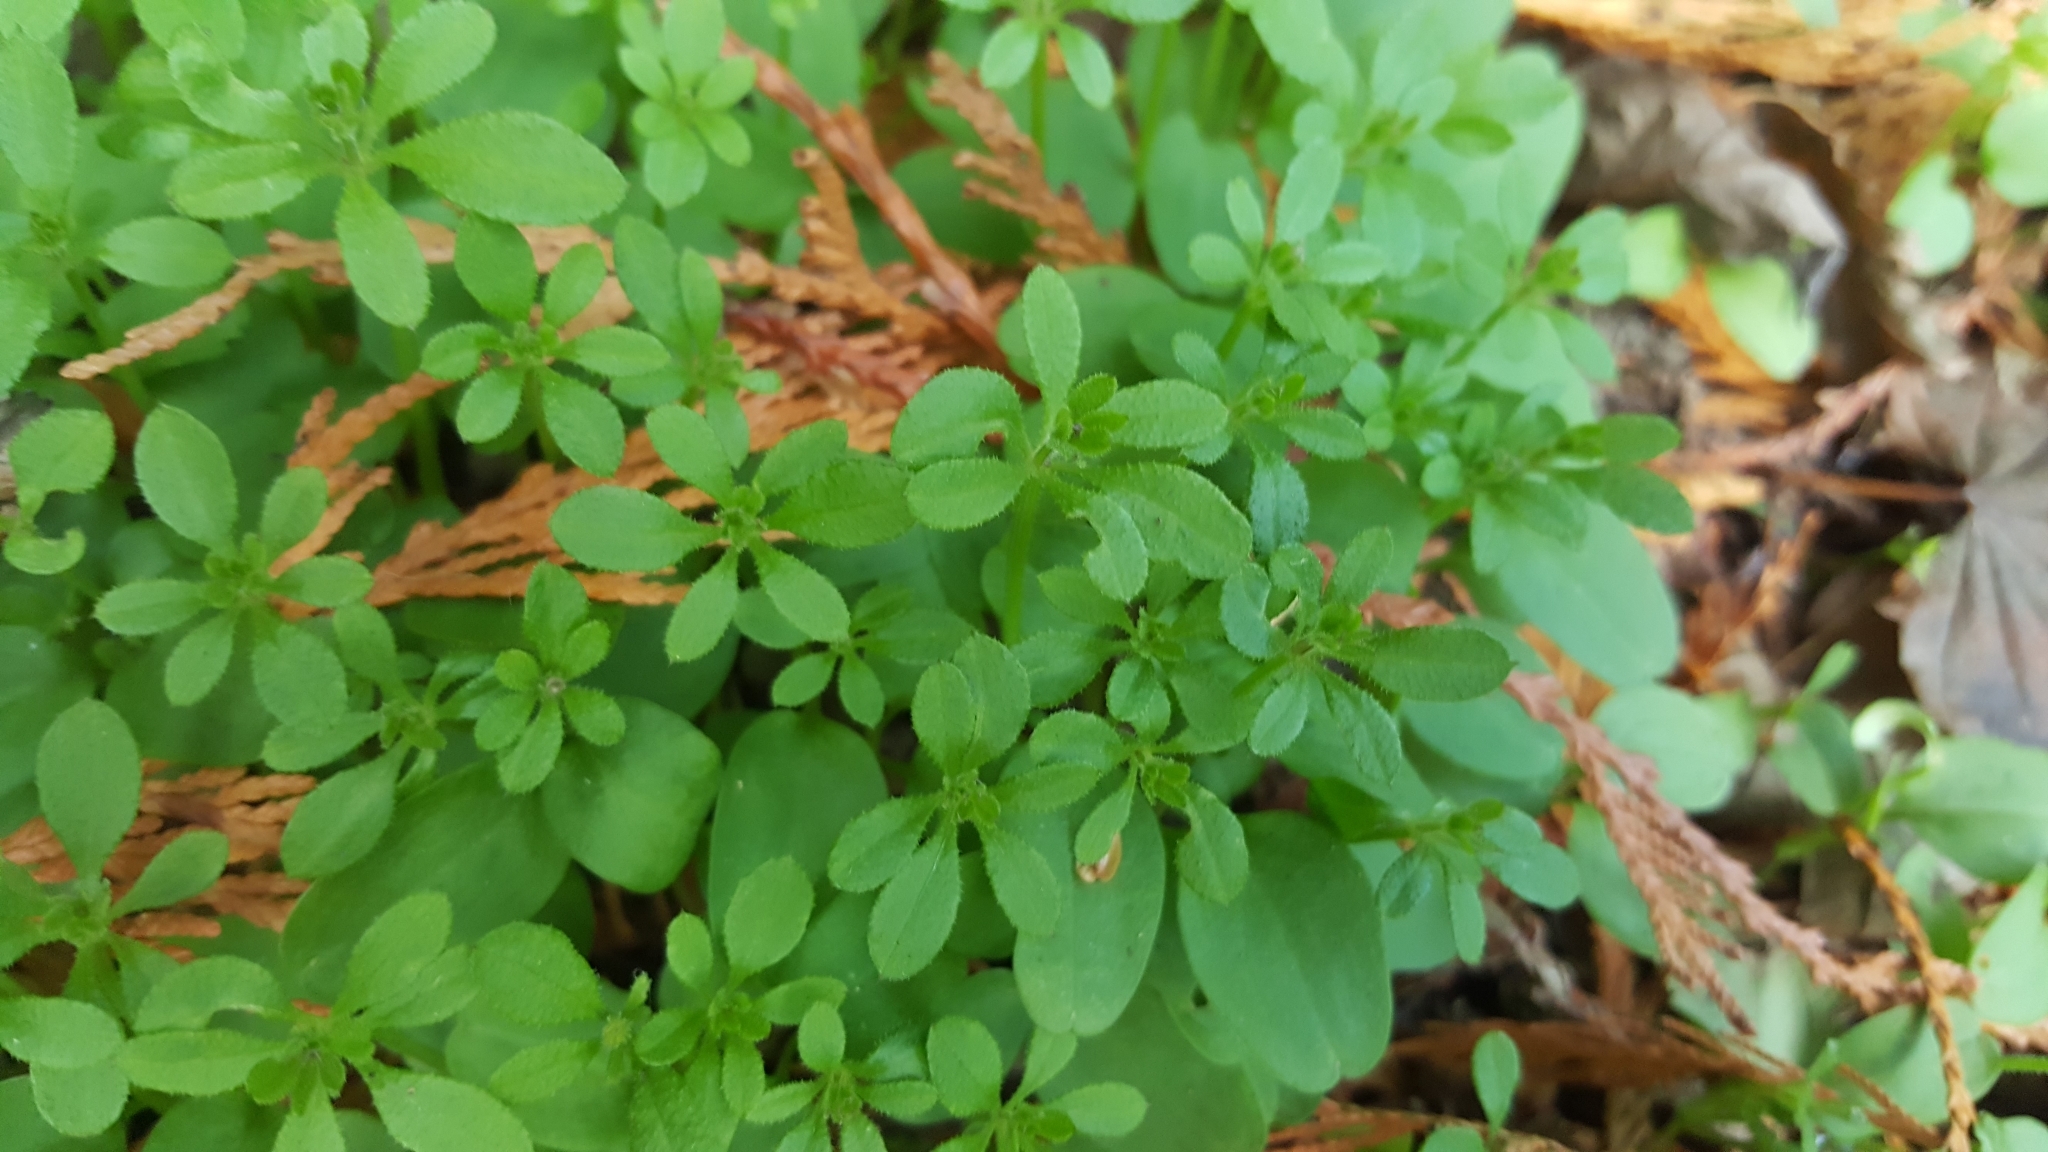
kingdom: Plantae
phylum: Tracheophyta
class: Magnoliopsida
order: Gentianales
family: Rubiaceae
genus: Galium
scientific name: Galium aparine
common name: Cleavers
